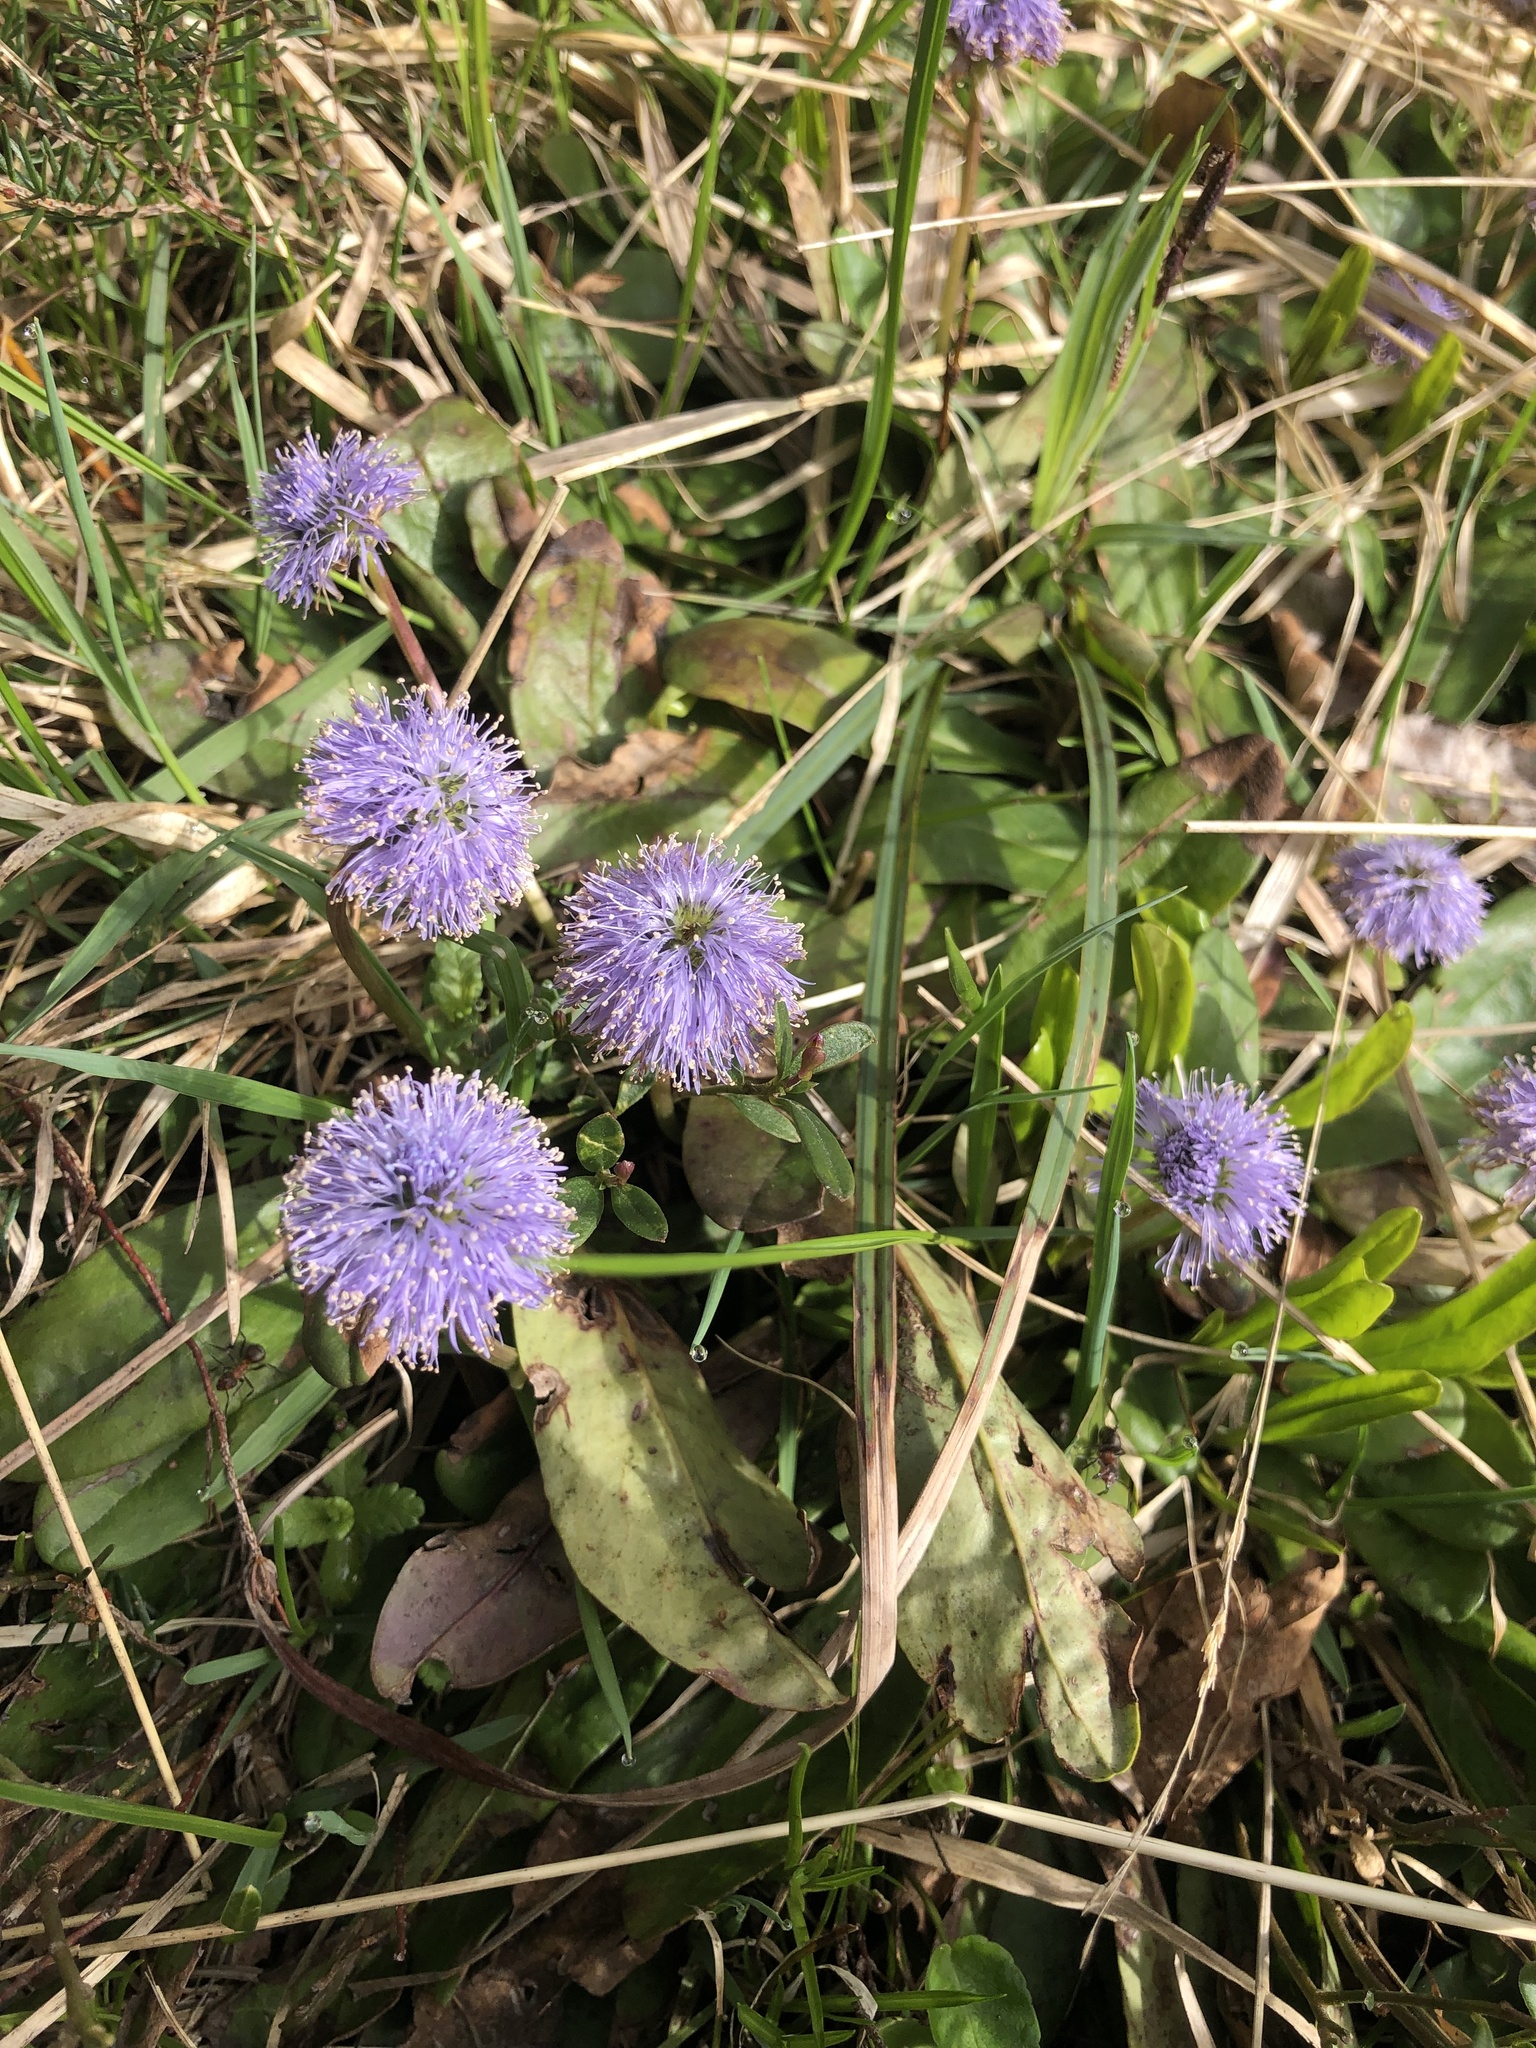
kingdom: Plantae
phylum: Tracheophyta
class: Magnoliopsida
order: Lamiales
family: Plantaginaceae
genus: Globularia
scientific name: Globularia nudicaulis
